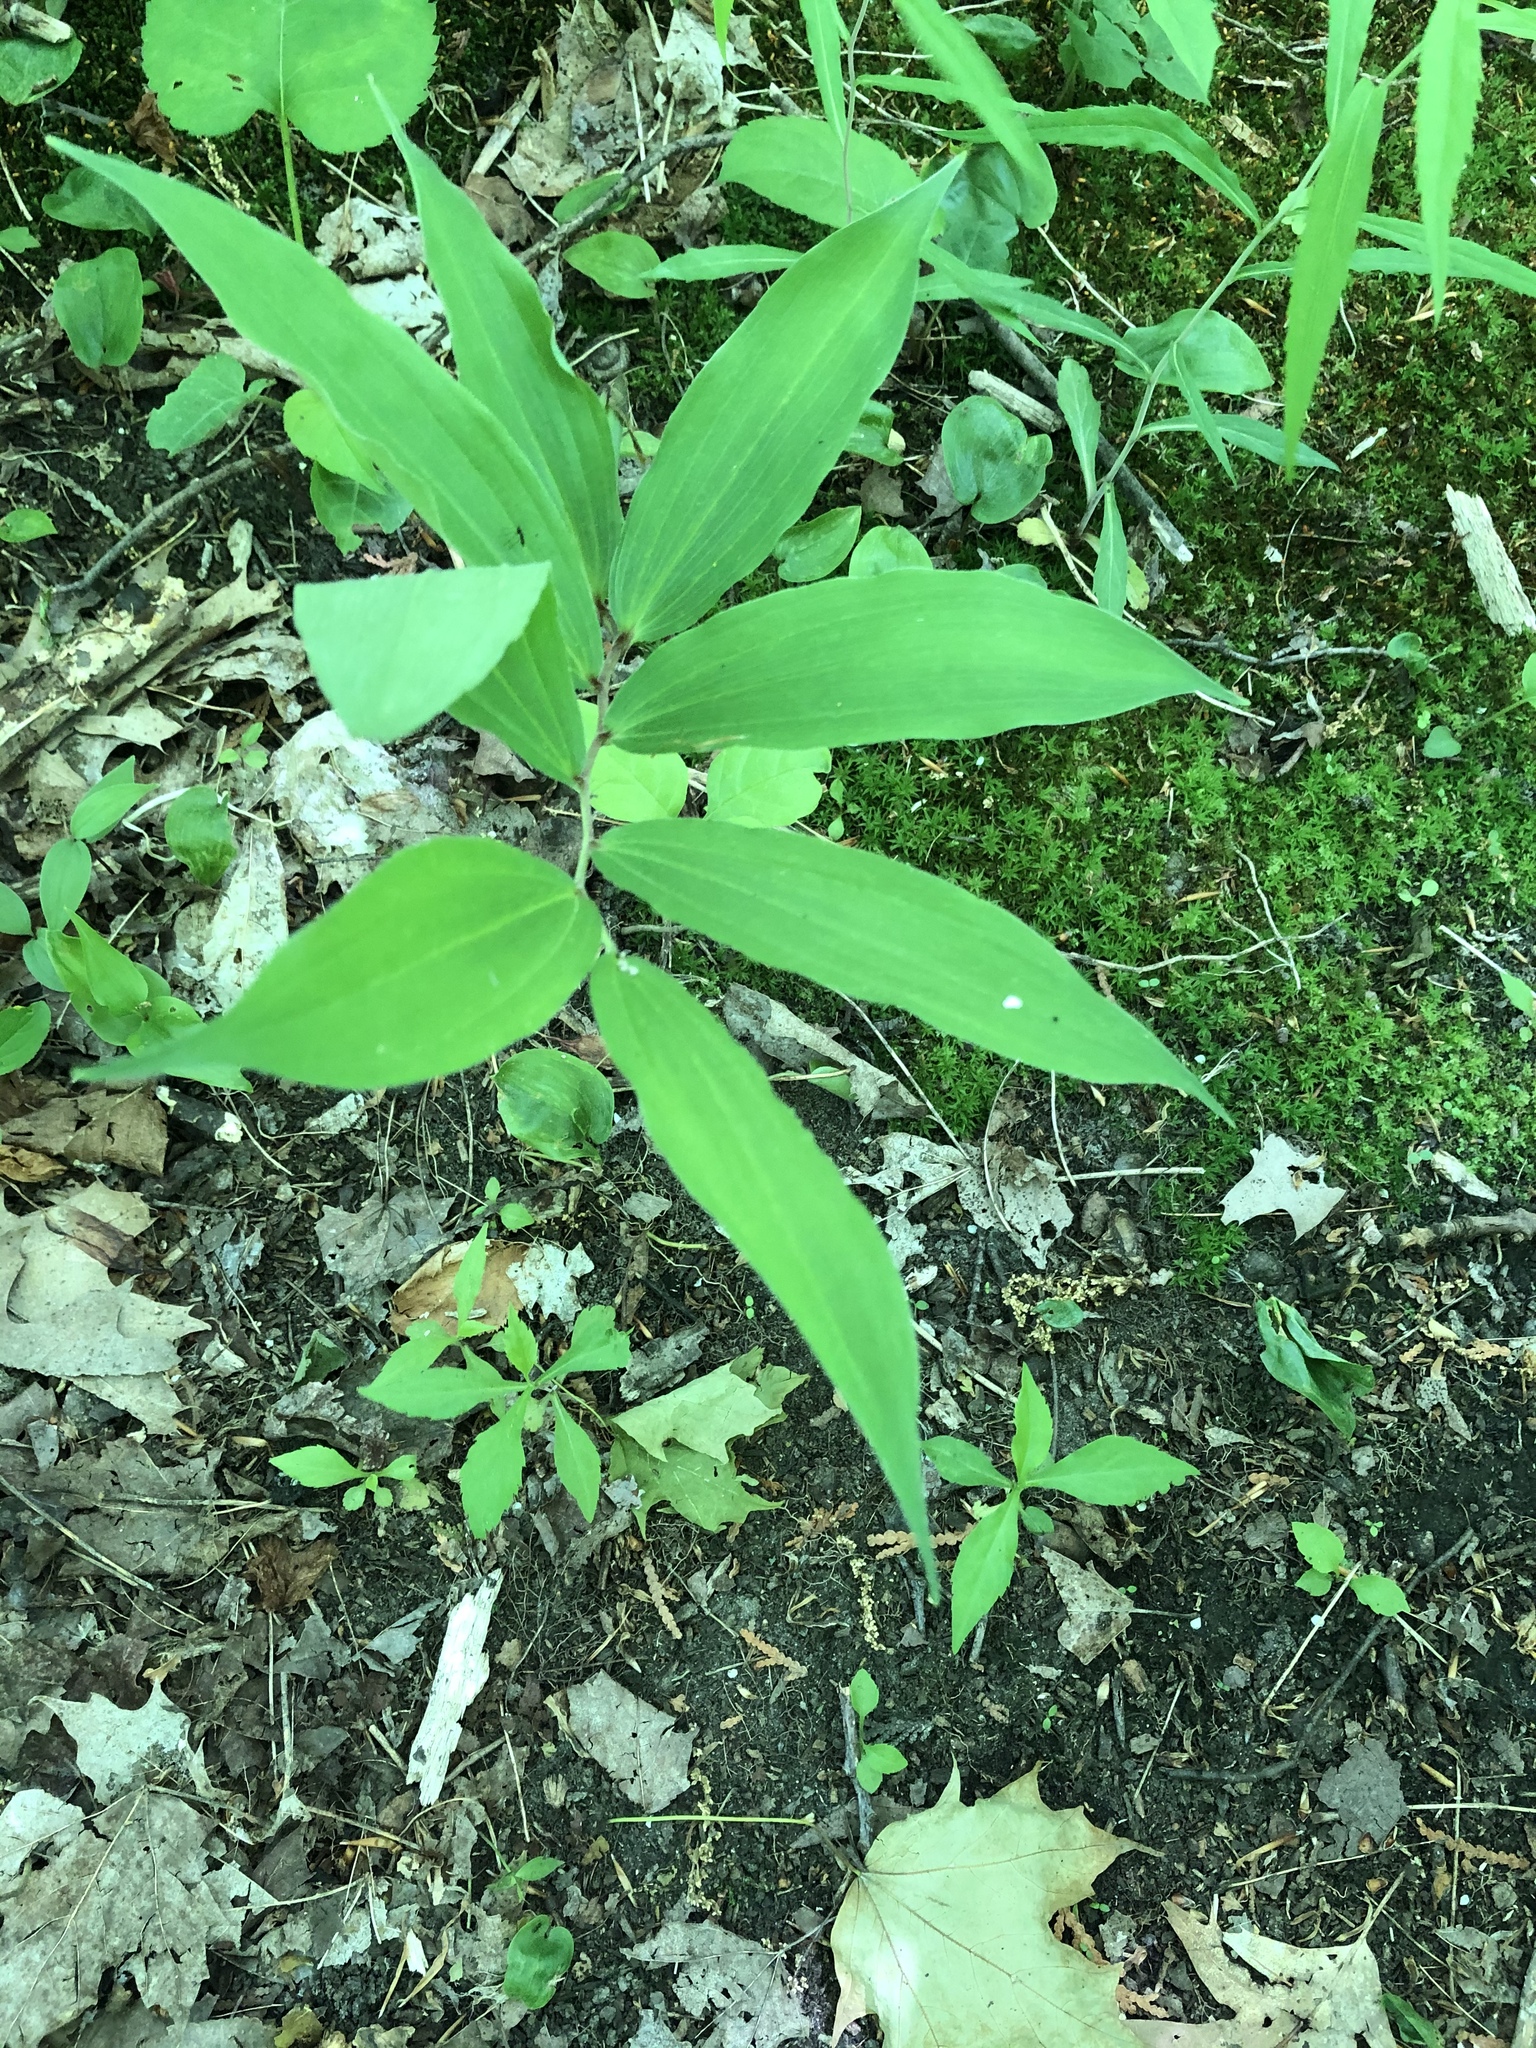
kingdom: Plantae
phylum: Tracheophyta
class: Liliopsida
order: Asparagales
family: Asparagaceae
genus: Maianthemum
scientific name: Maianthemum racemosum
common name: False spikenard
